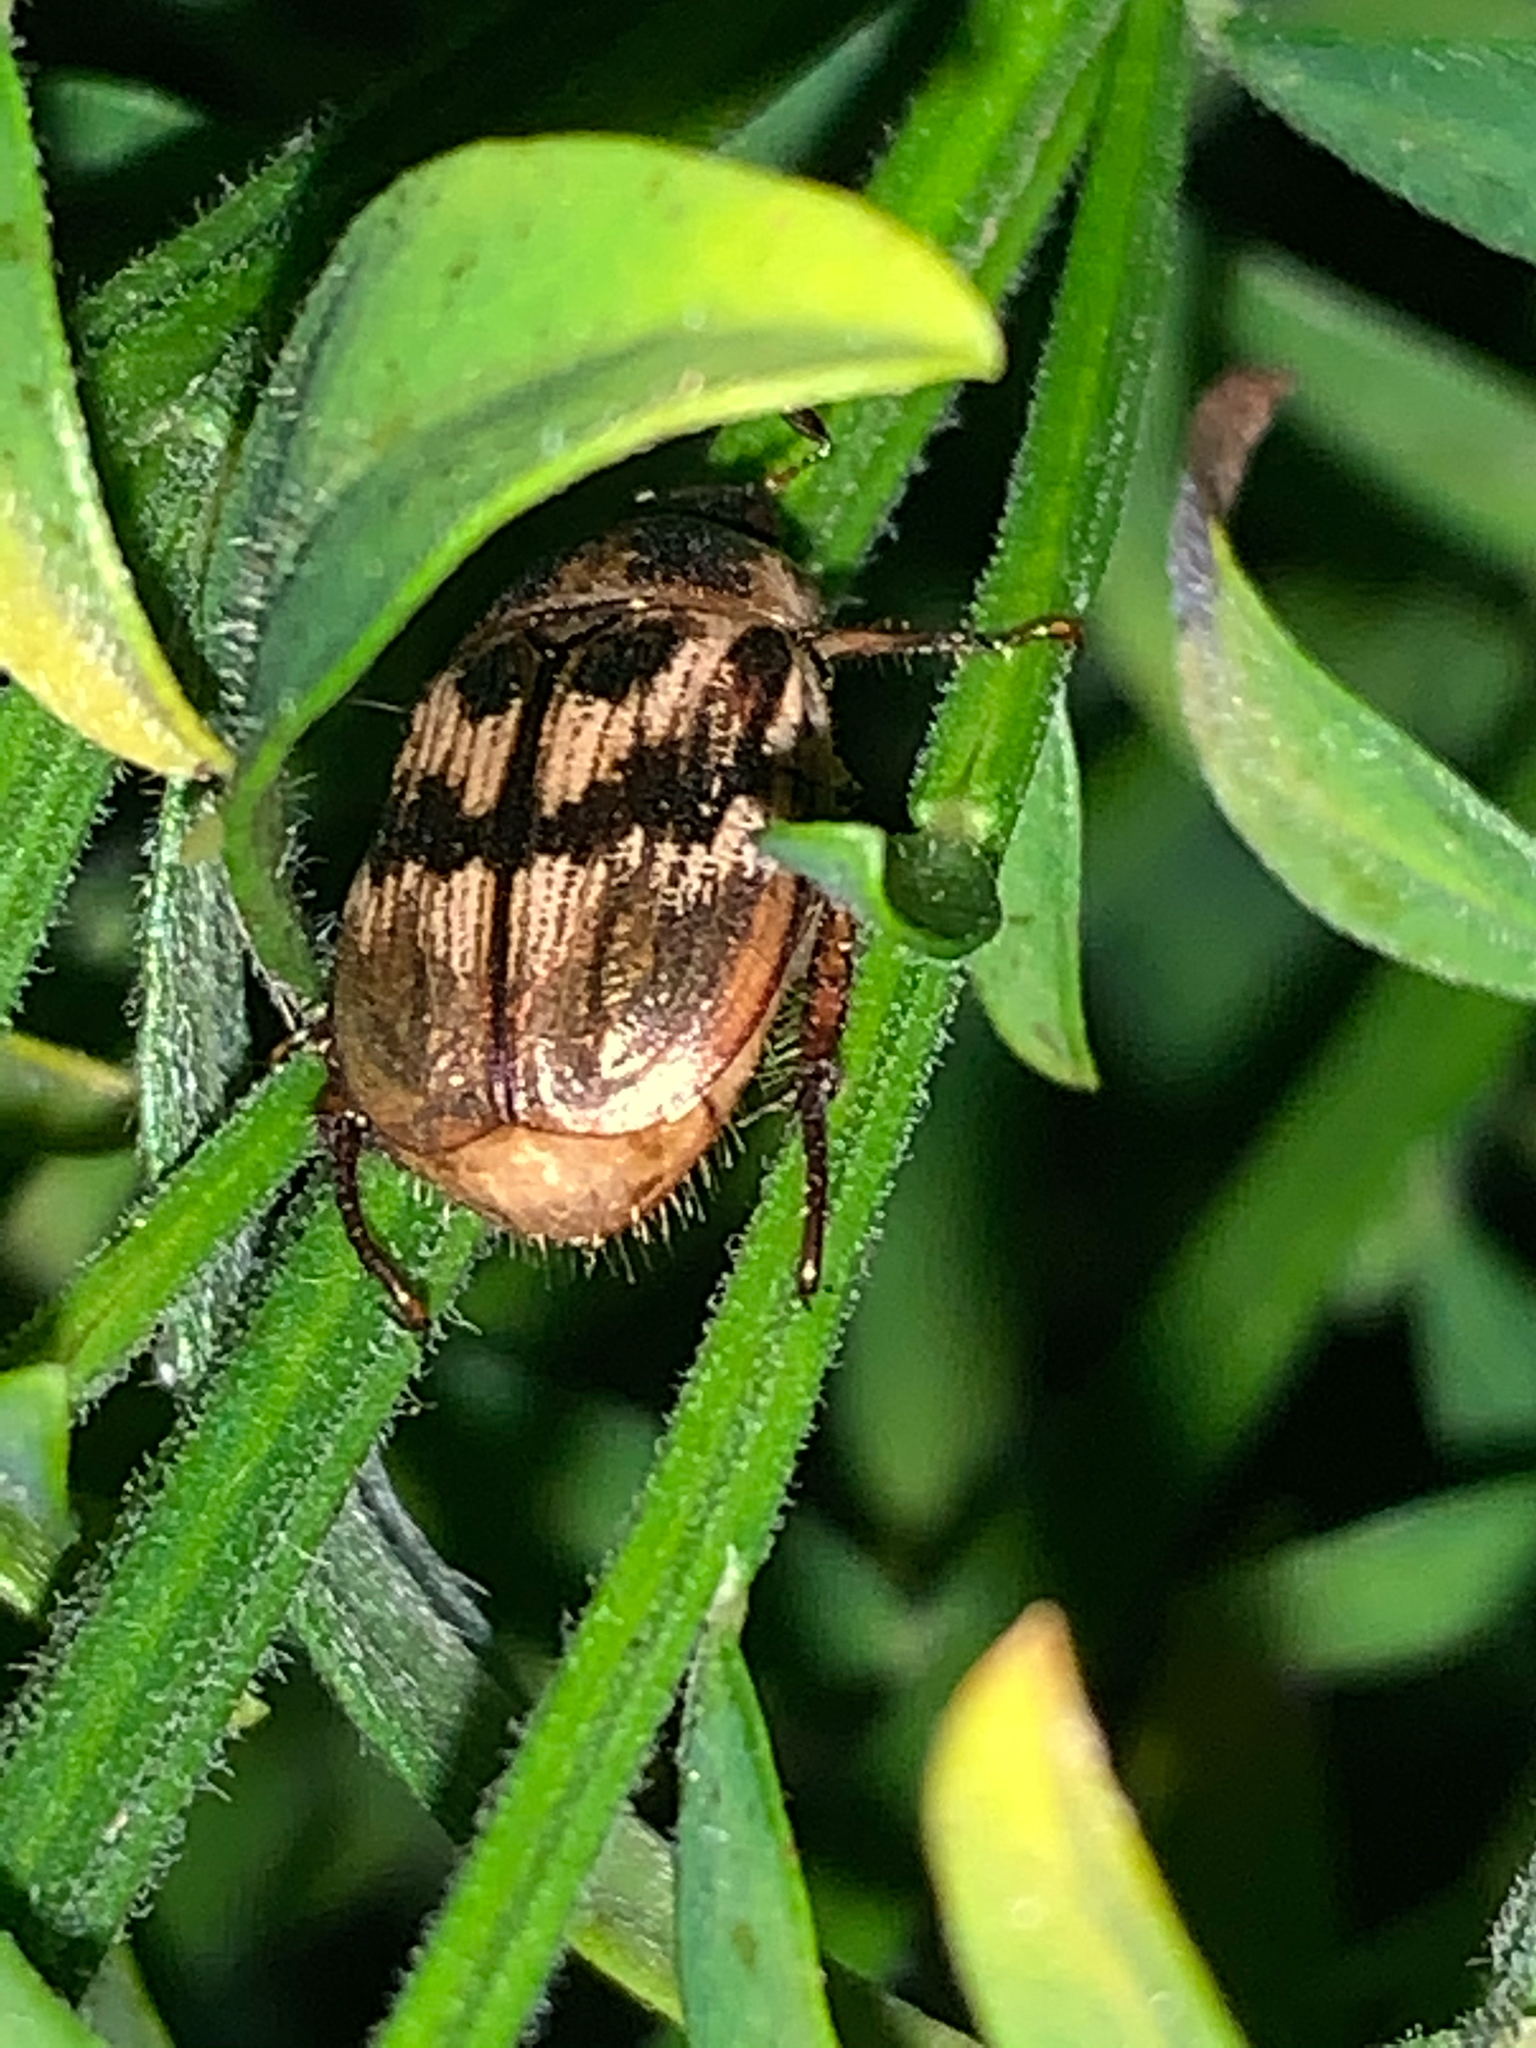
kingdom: Animalia
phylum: Arthropoda
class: Insecta
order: Coleoptera
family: Scarabaeidae
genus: Exomala
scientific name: Exomala orientalis
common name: Oriental beetle
